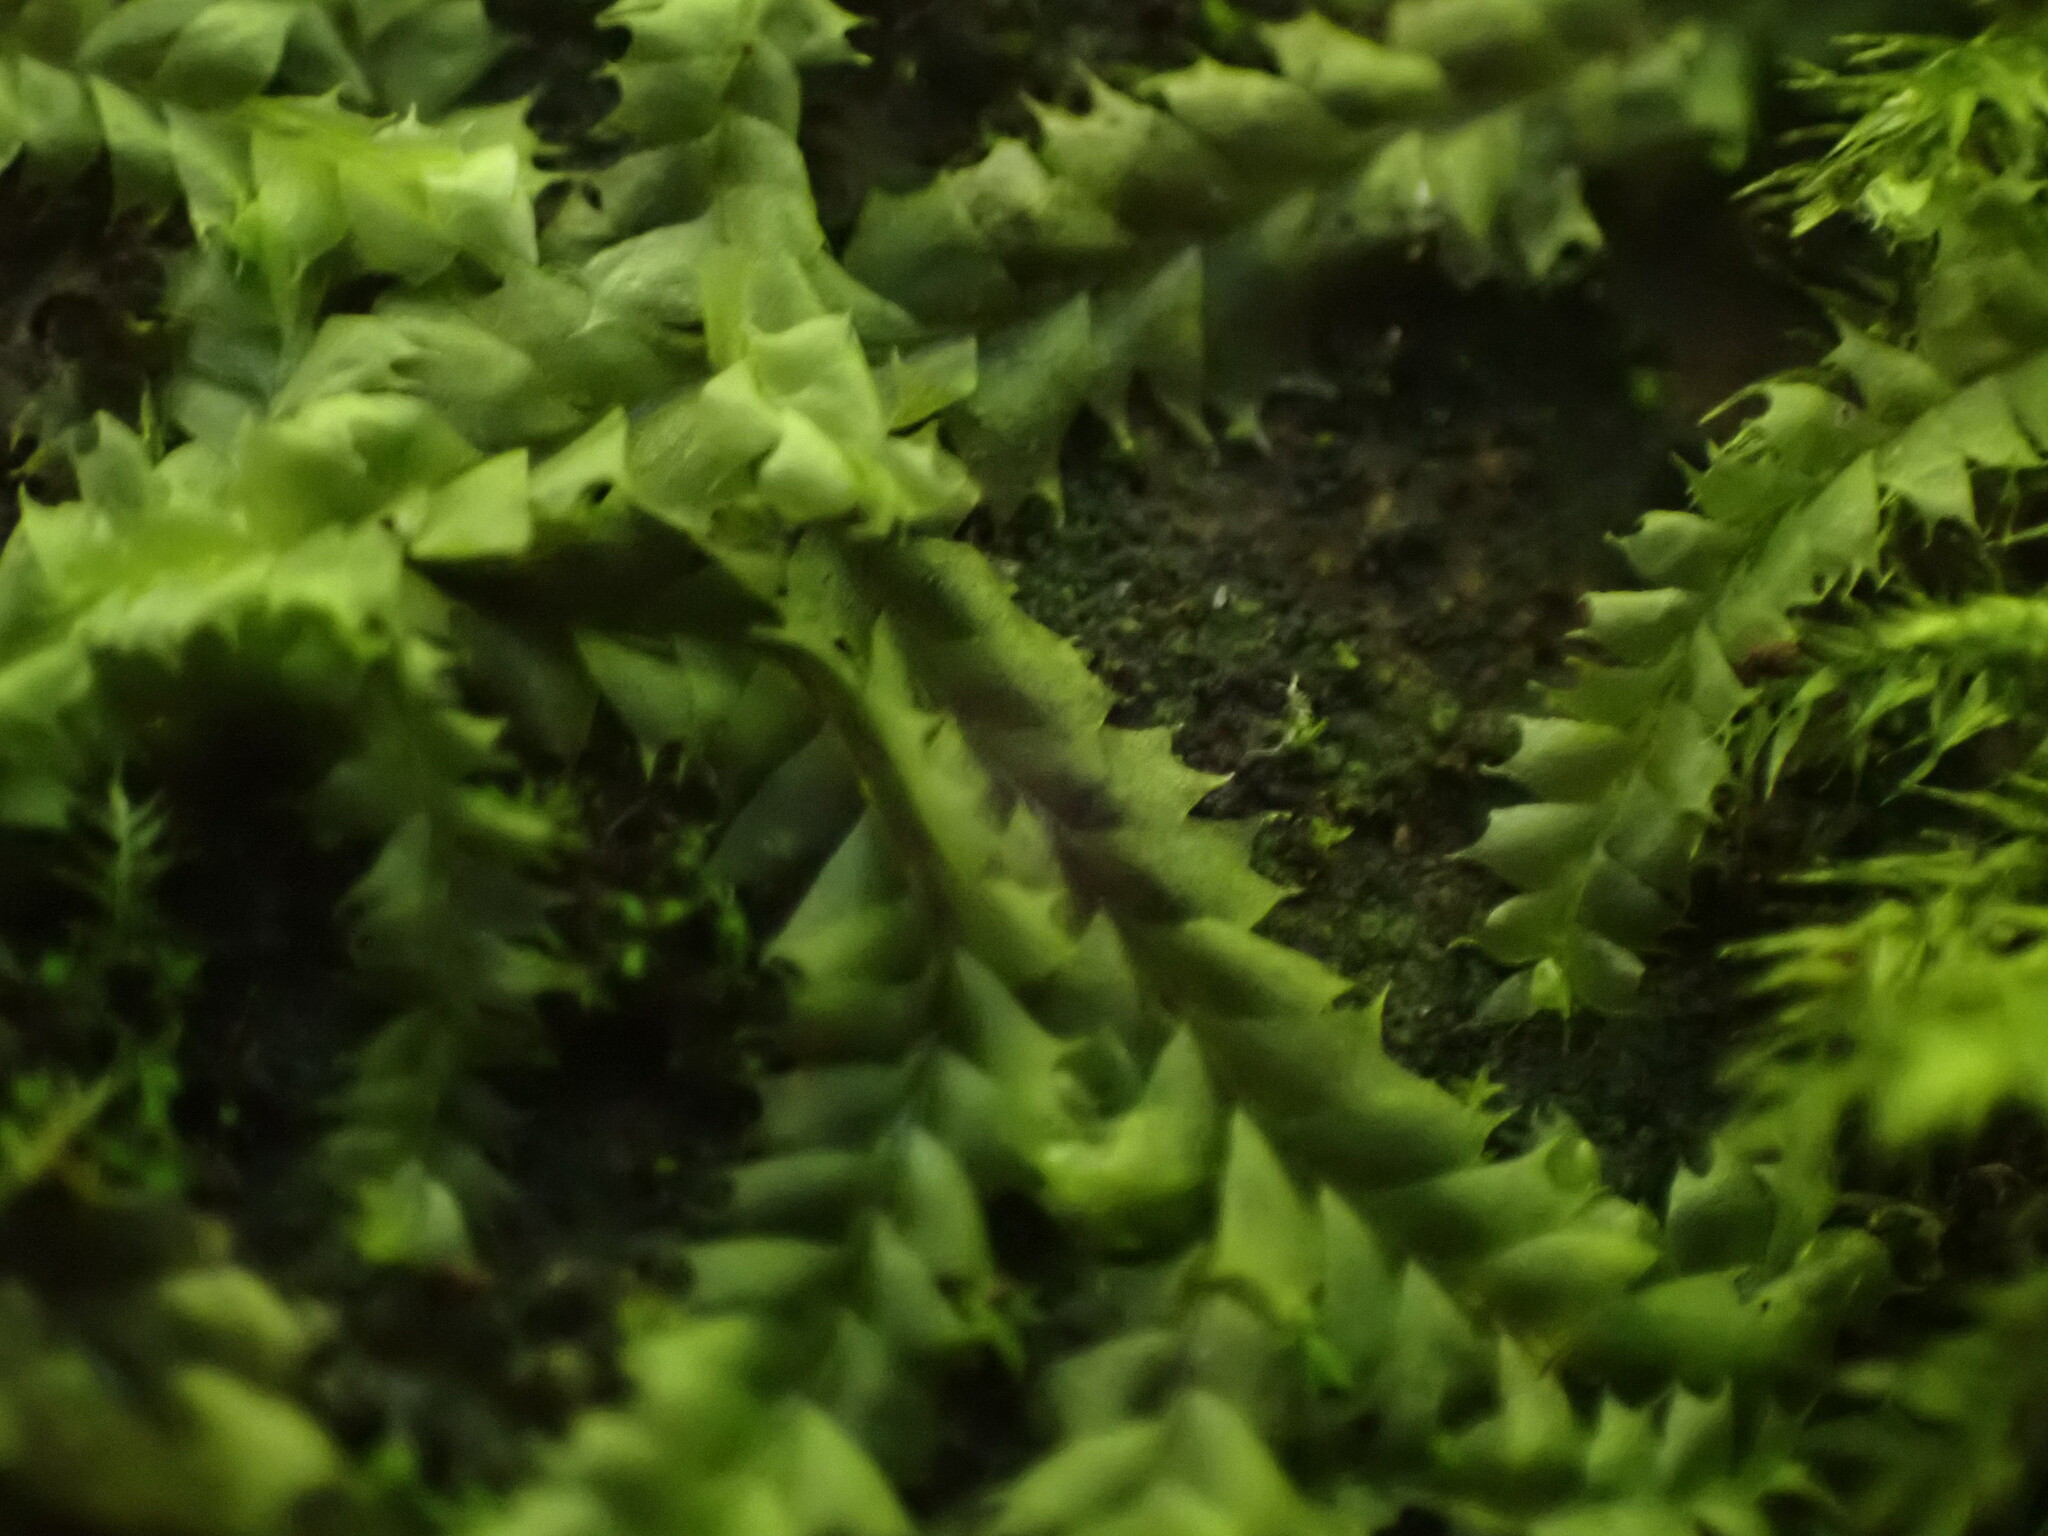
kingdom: Plantae
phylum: Marchantiophyta
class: Jungermanniopsida
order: Jungermanniales
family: Lophocoleaceae
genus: Lophocolea
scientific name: Lophocolea bidentata
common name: Bifid crestwort
